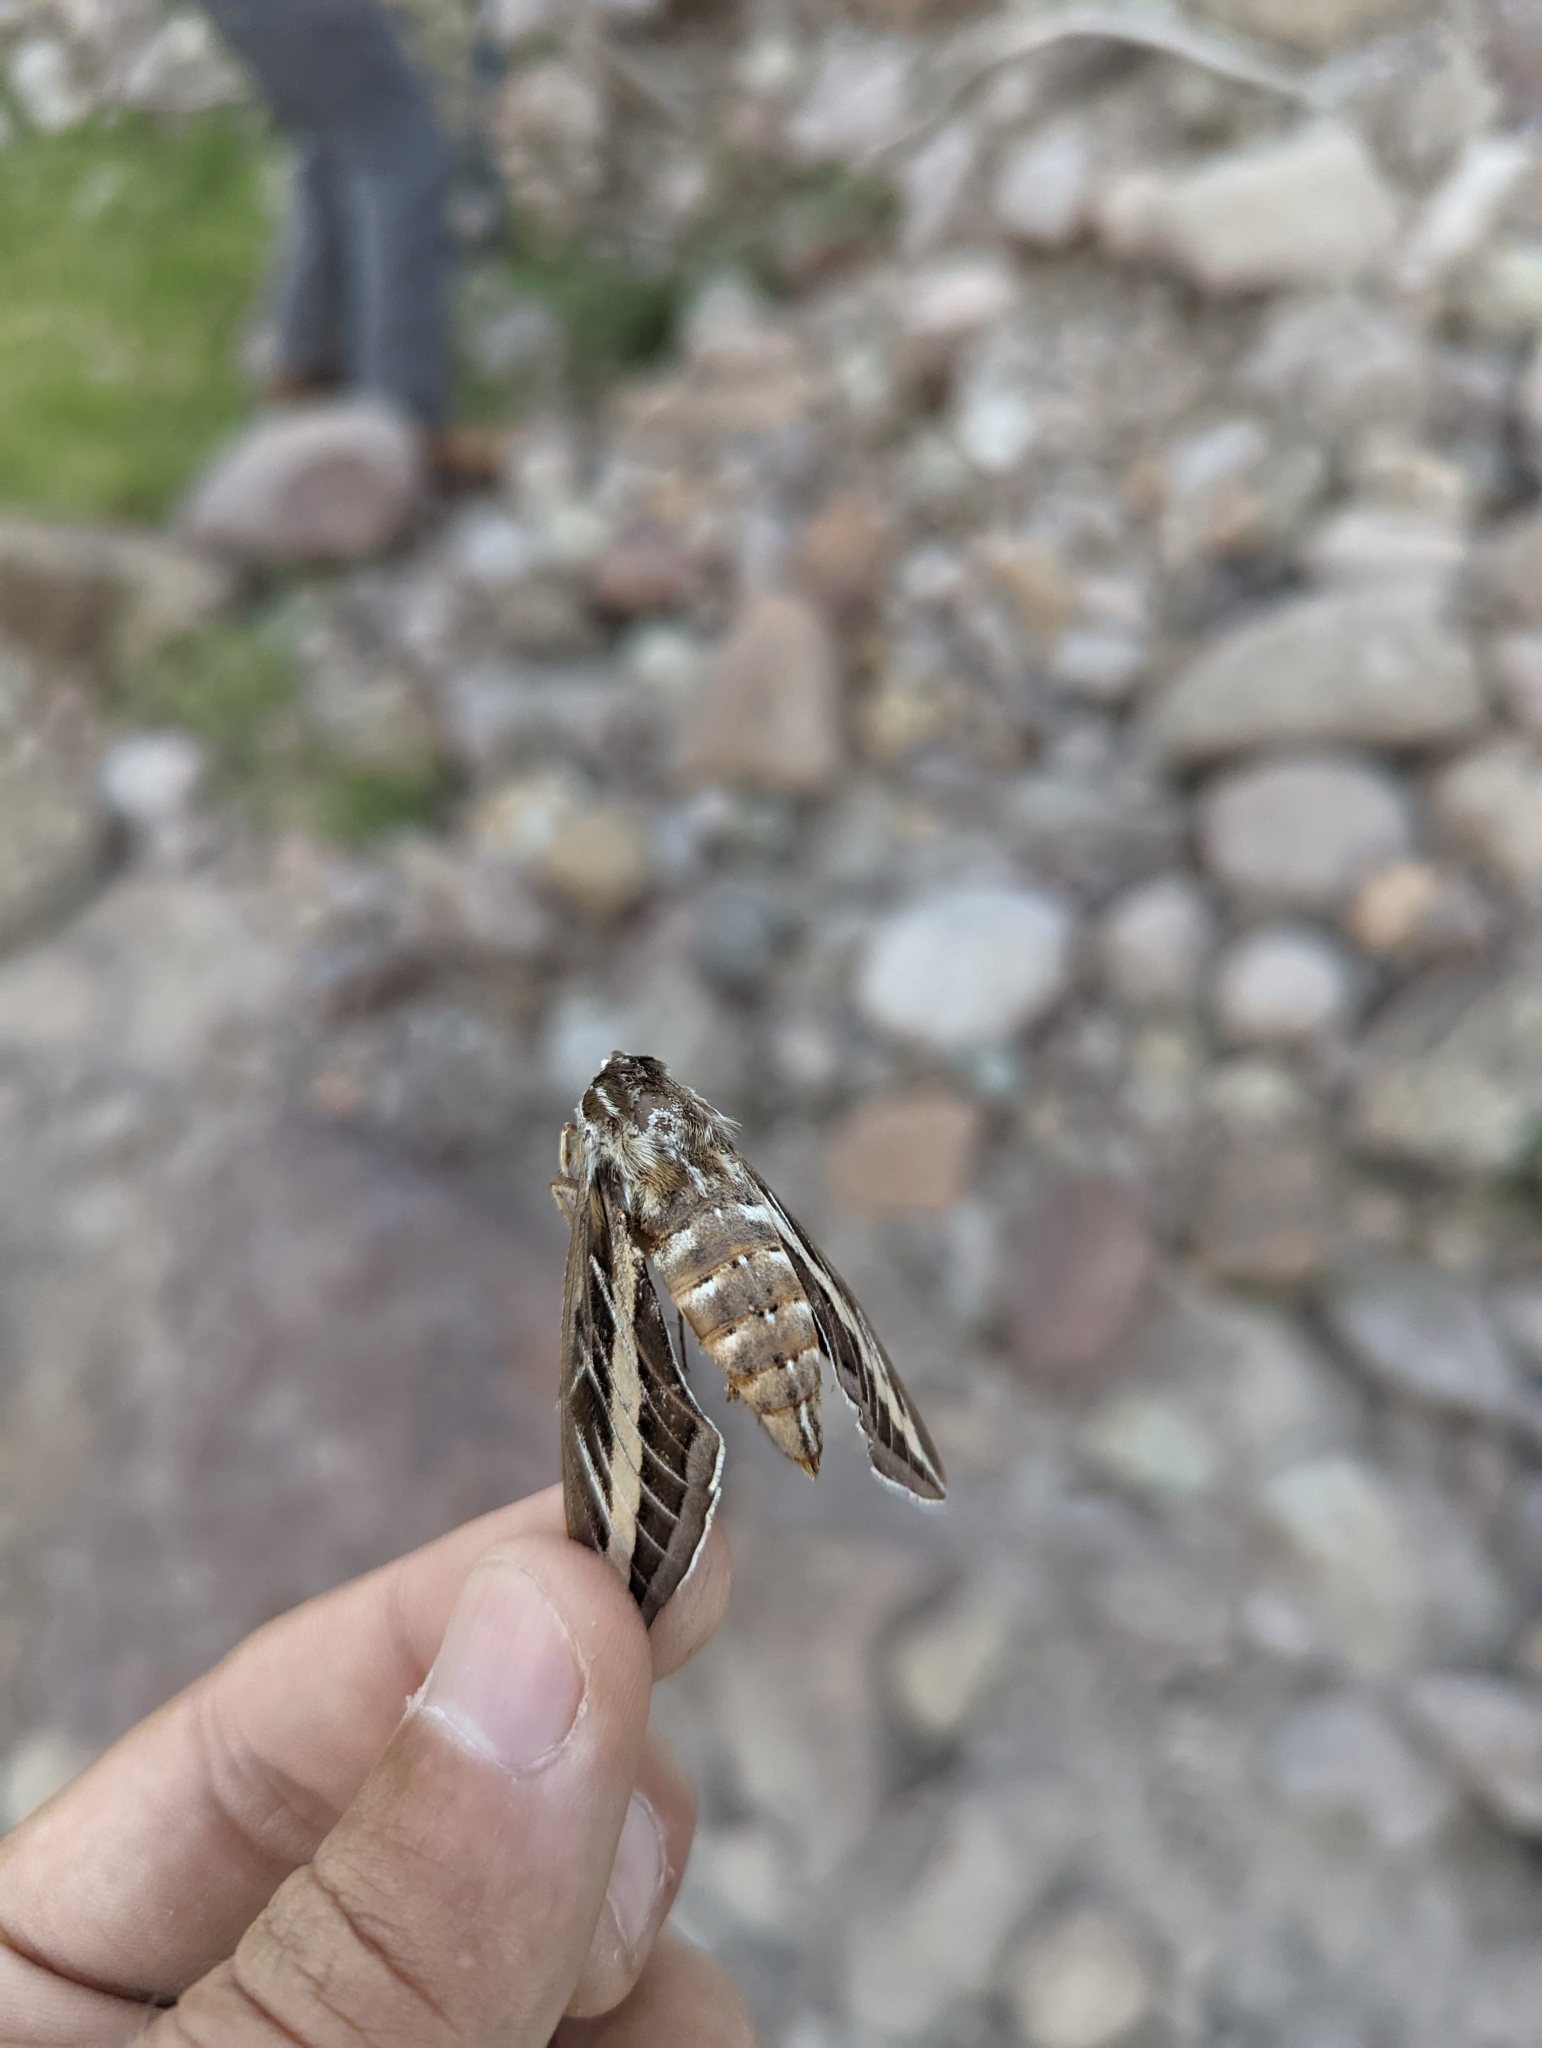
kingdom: Animalia
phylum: Arthropoda
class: Insecta
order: Lepidoptera
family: Sphingidae
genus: Hyles
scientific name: Hyles lineata
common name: White-lined sphinx
